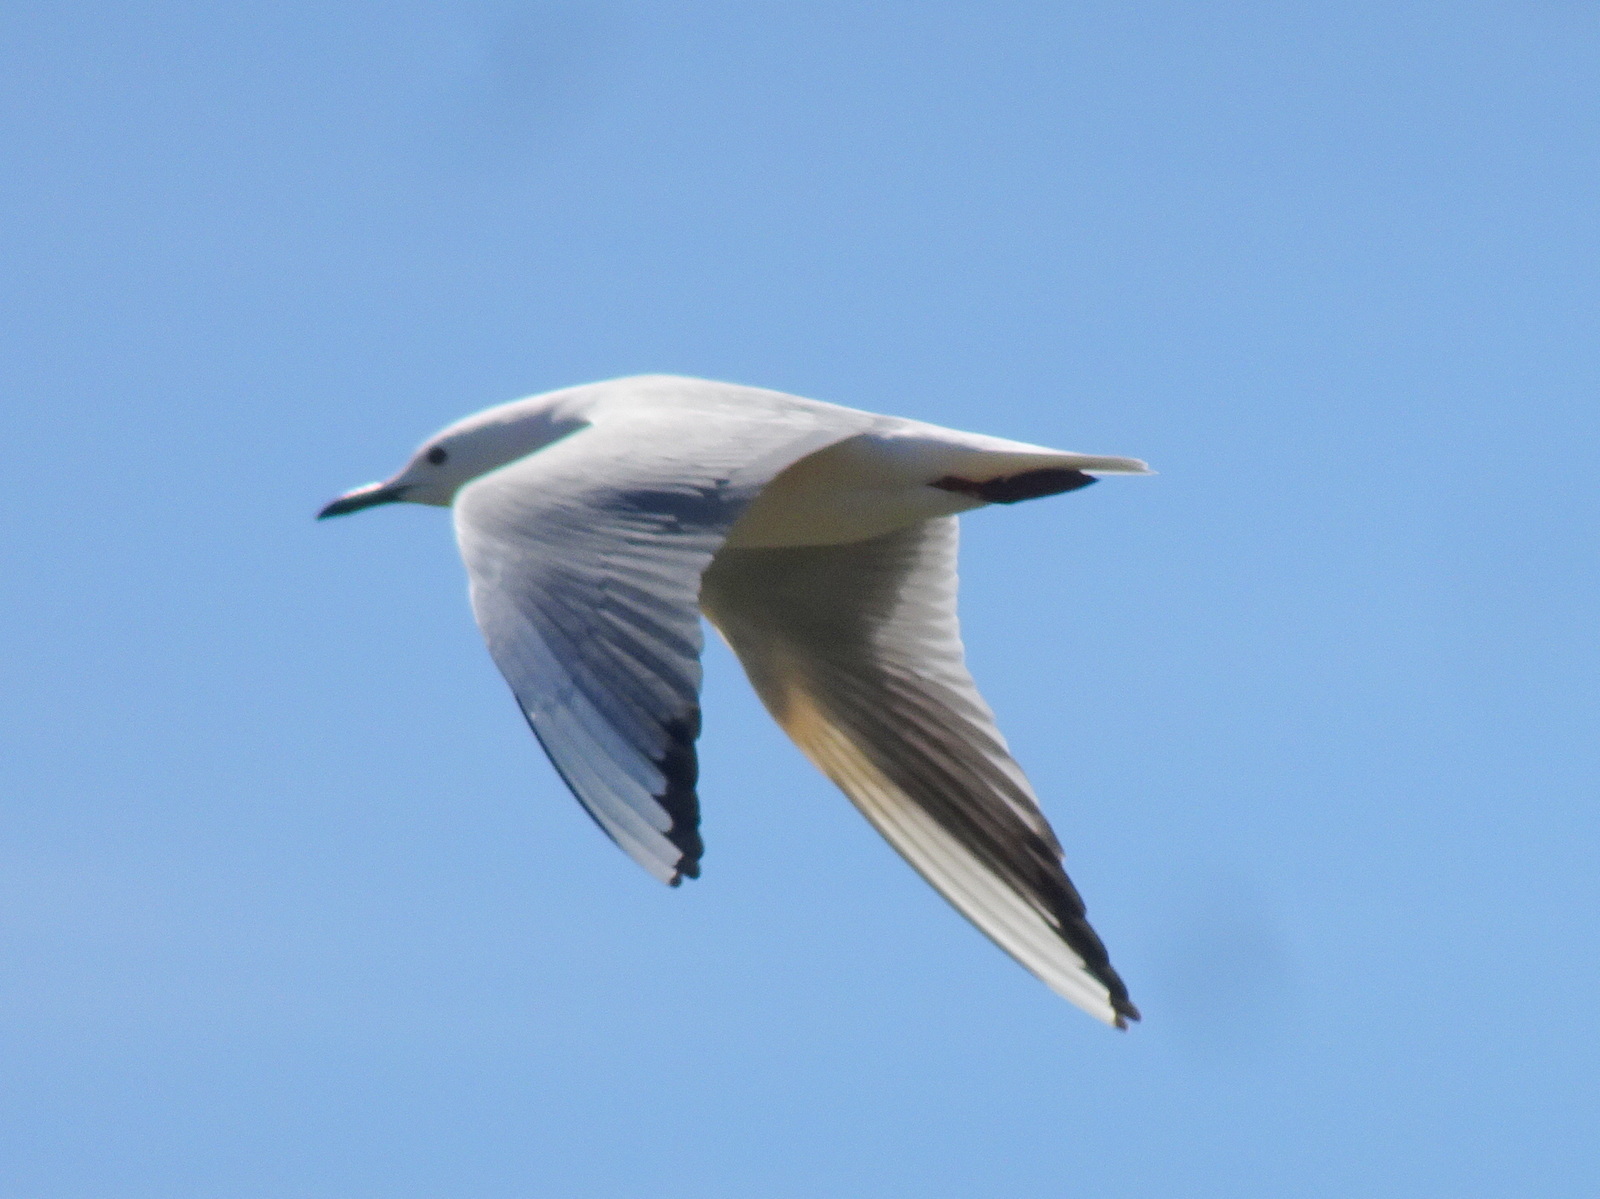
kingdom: Animalia
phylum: Chordata
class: Aves
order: Charadriiformes
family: Laridae
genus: Chroicocephalus
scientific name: Chroicocephalus genei
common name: Slender-billed gull
